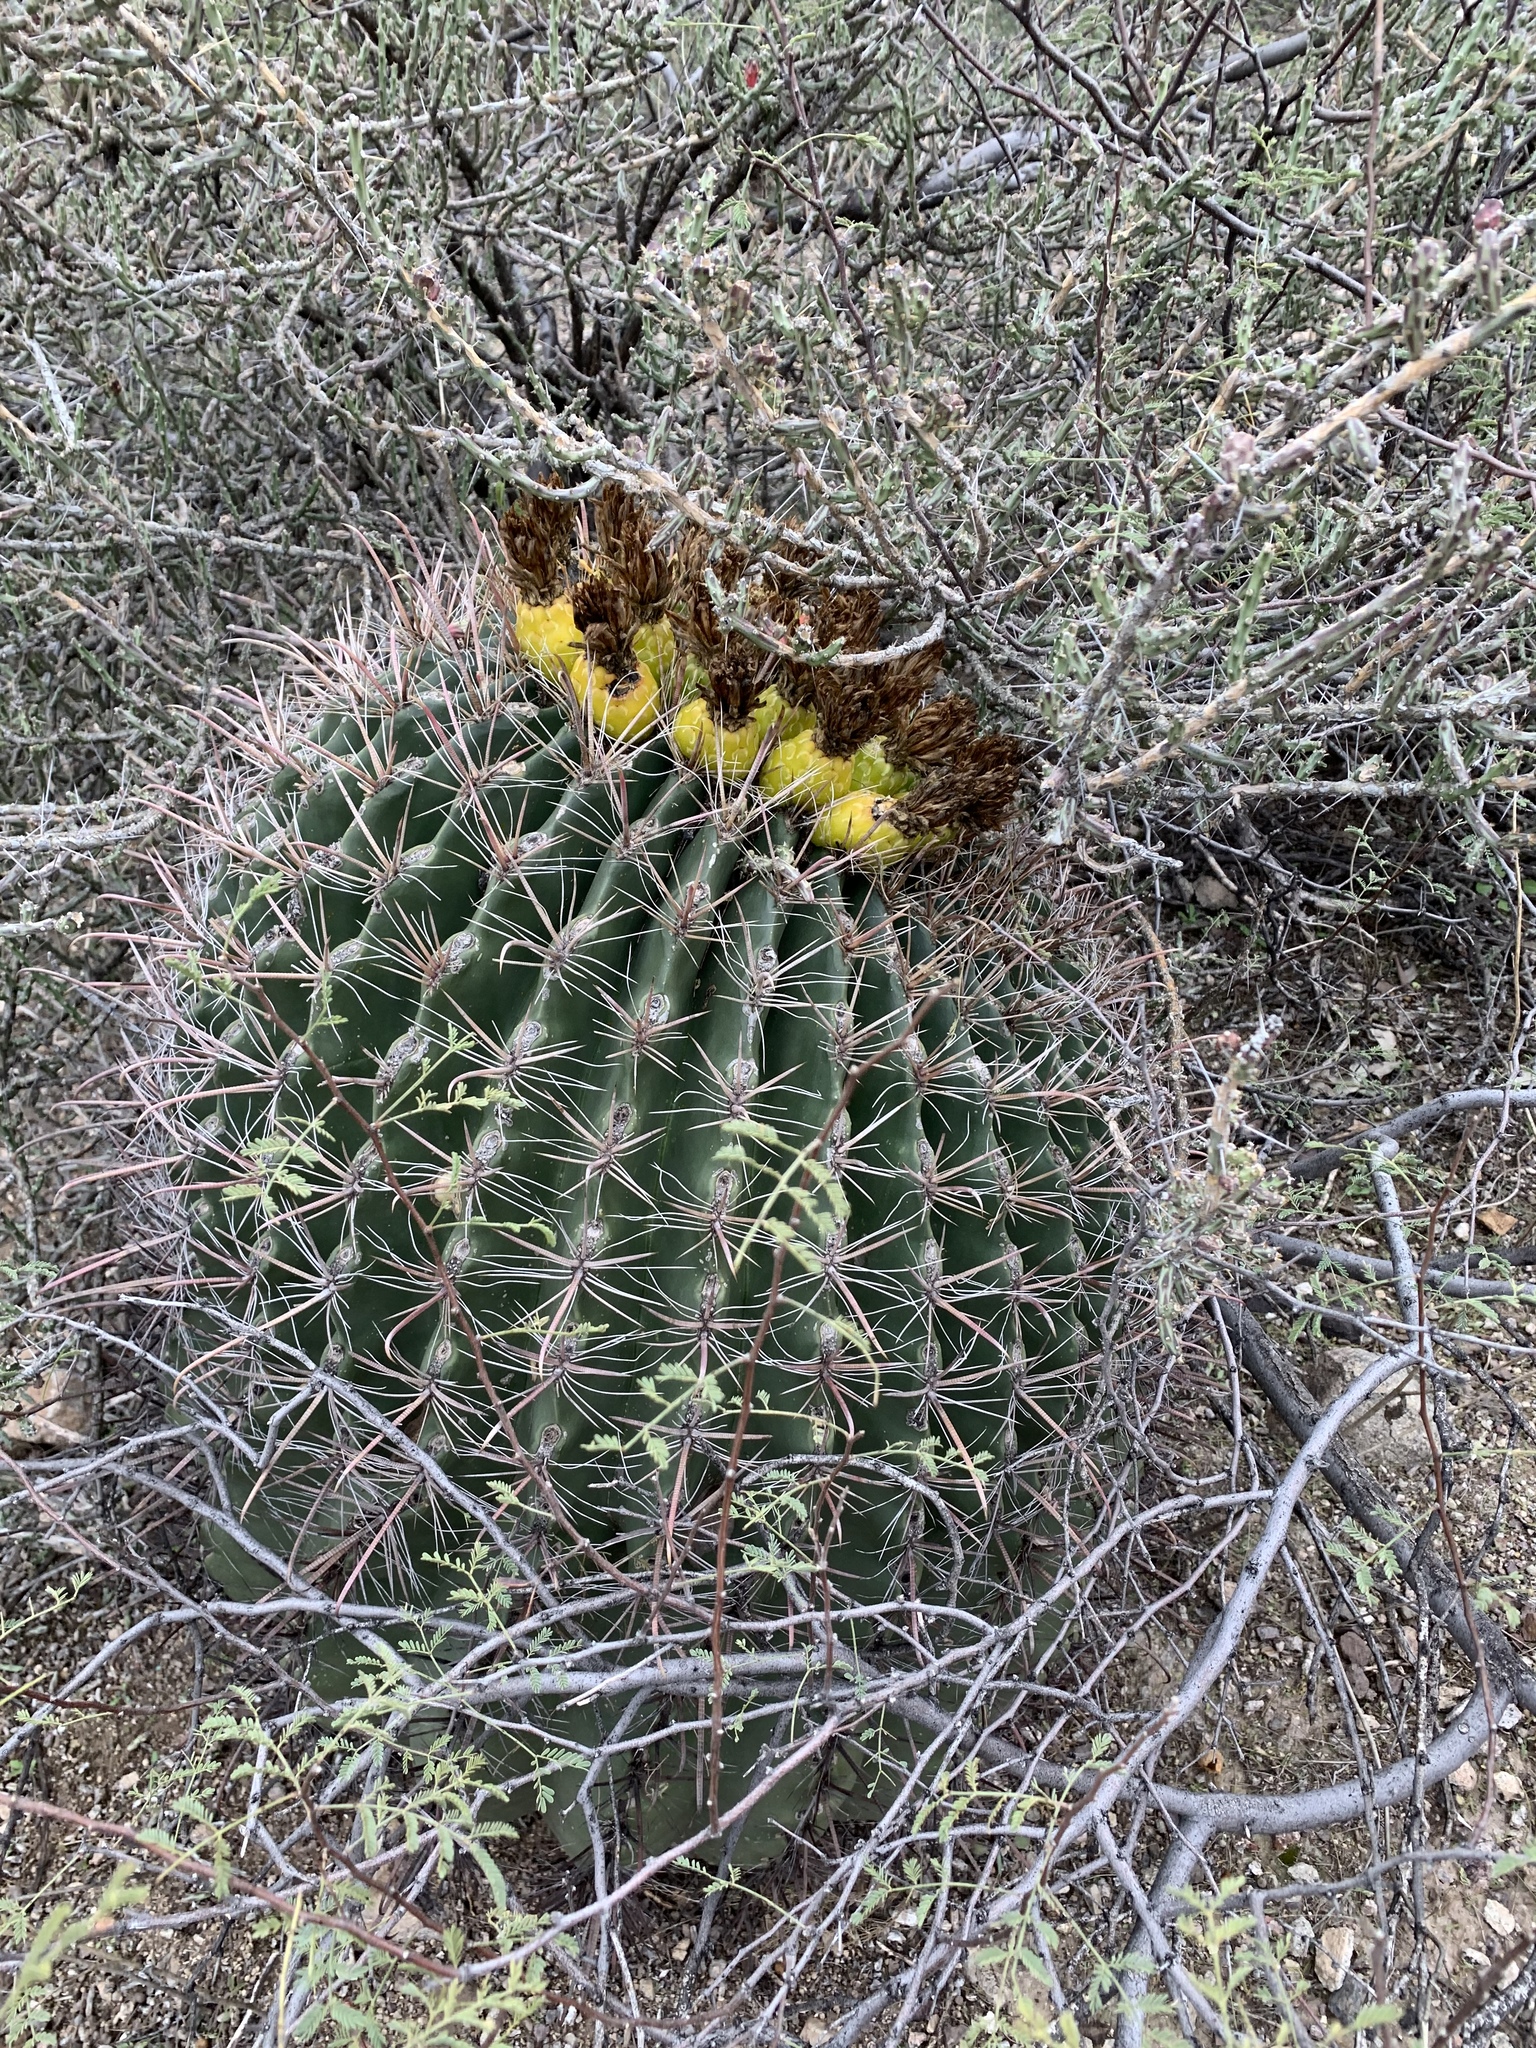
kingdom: Plantae
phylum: Tracheophyta
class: Magnoliopsida
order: Caryophyllales
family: Cactaceae
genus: Ferocactus
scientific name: Ferocactus wislizeni
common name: Candy barrel cactus
